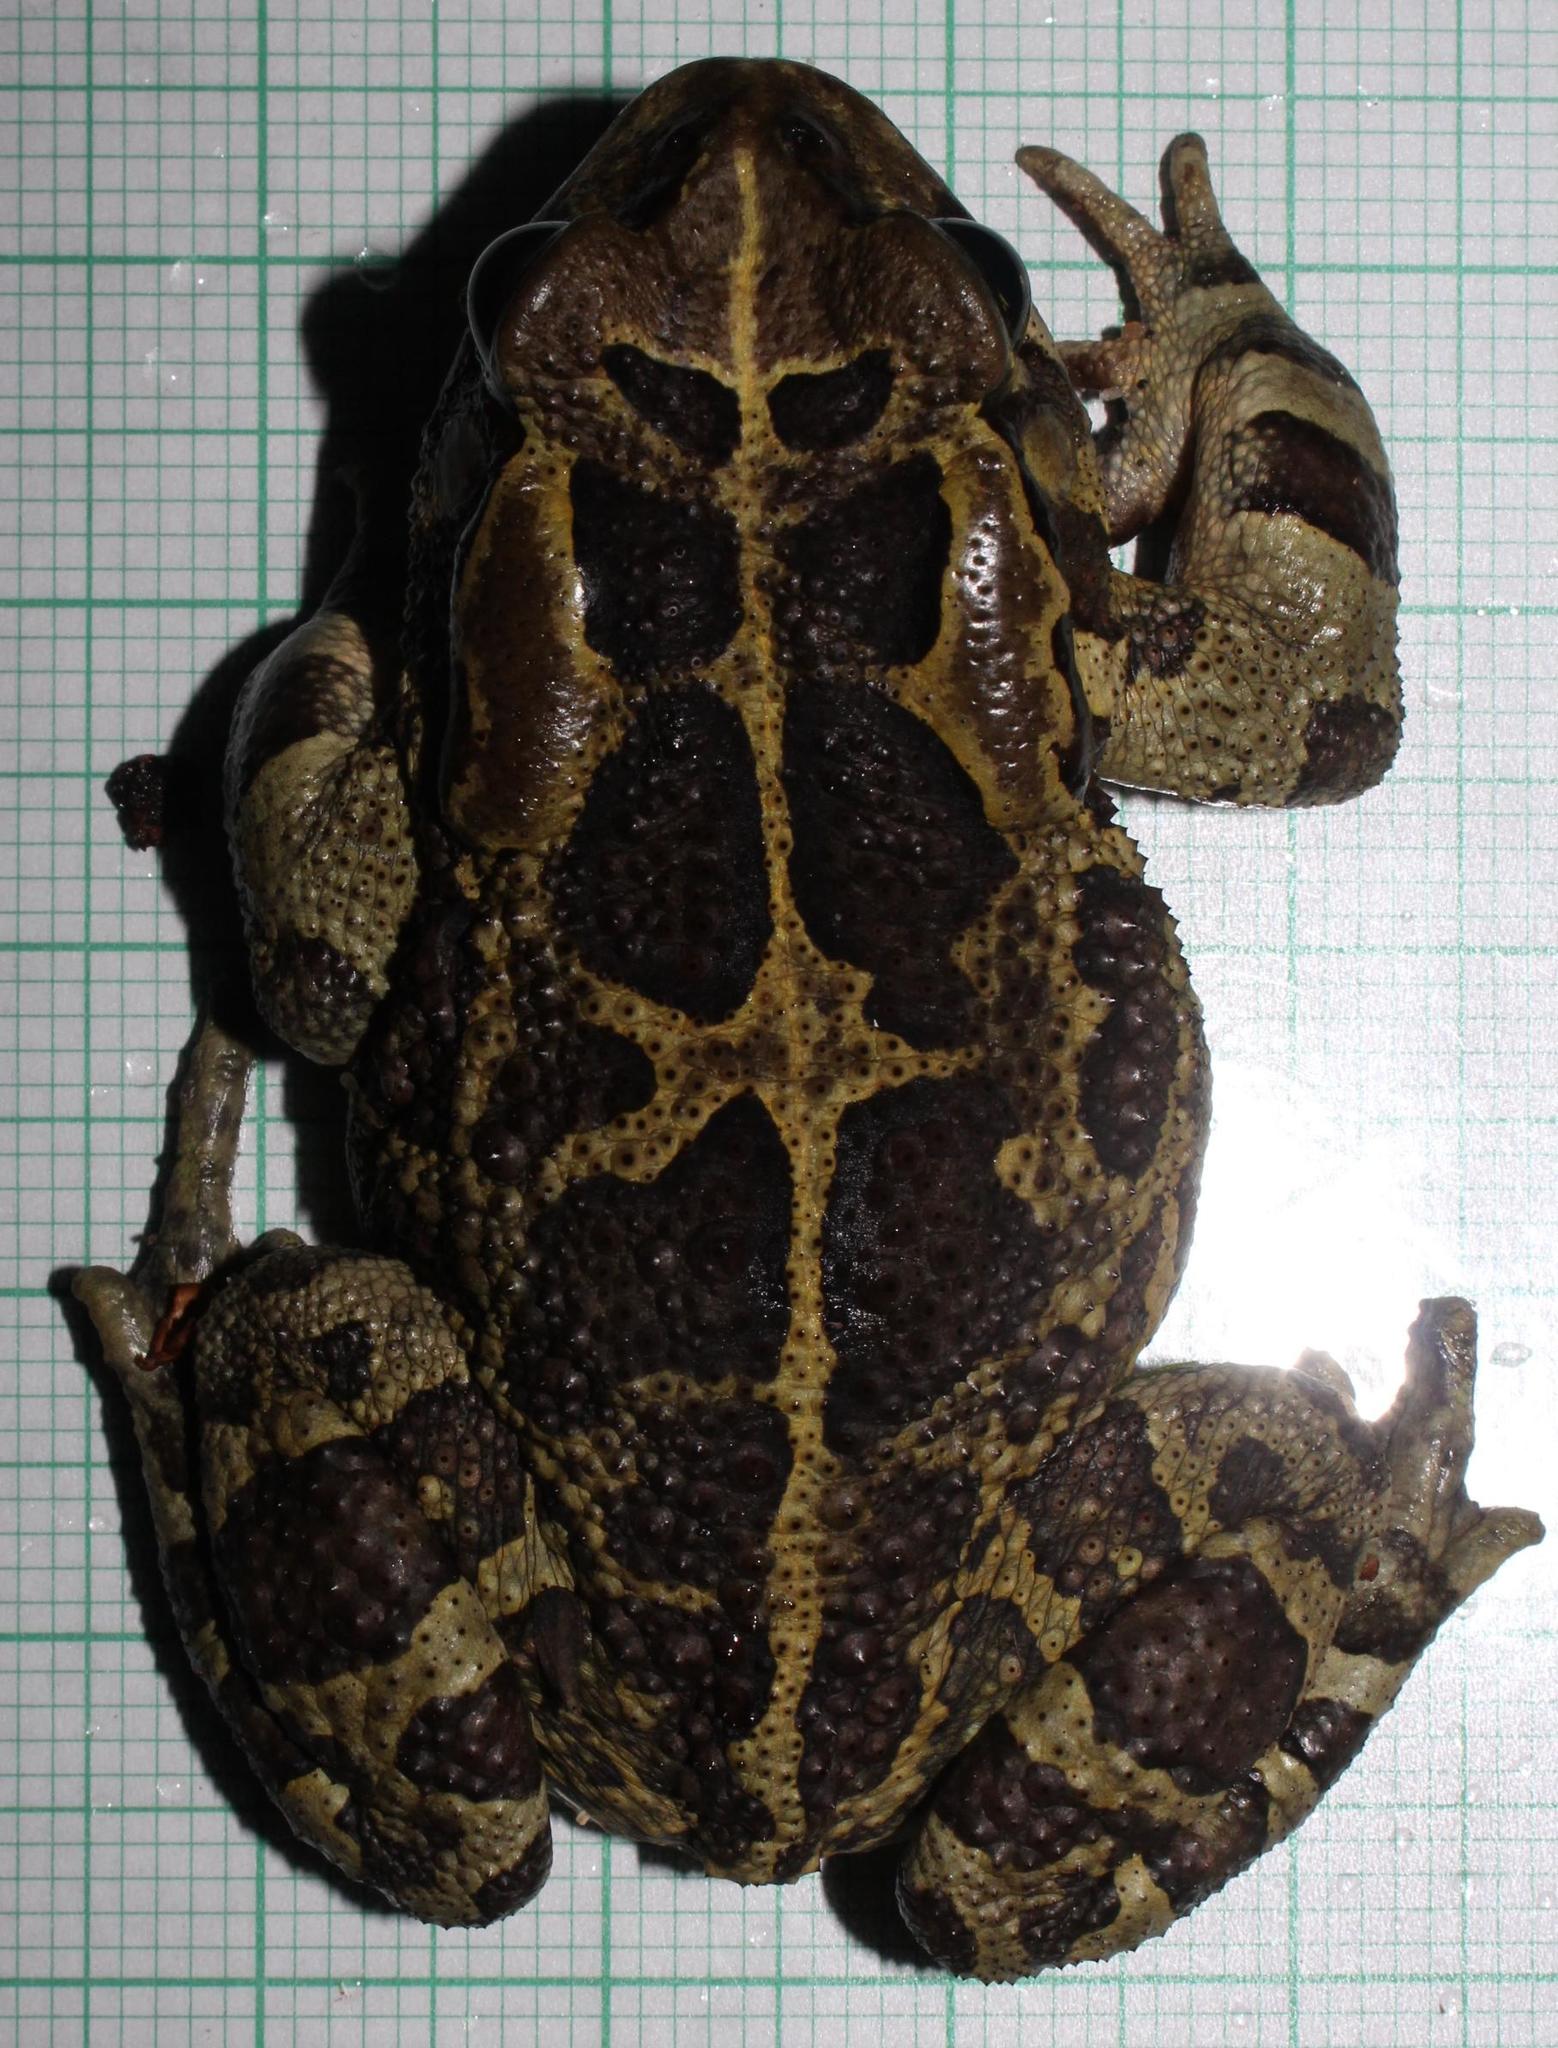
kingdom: Animalia
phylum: Chordata
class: Amphibia
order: Anura
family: Bufonidae
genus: Sclerophrys
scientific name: Sclerophrys pantherina
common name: Panther toad
